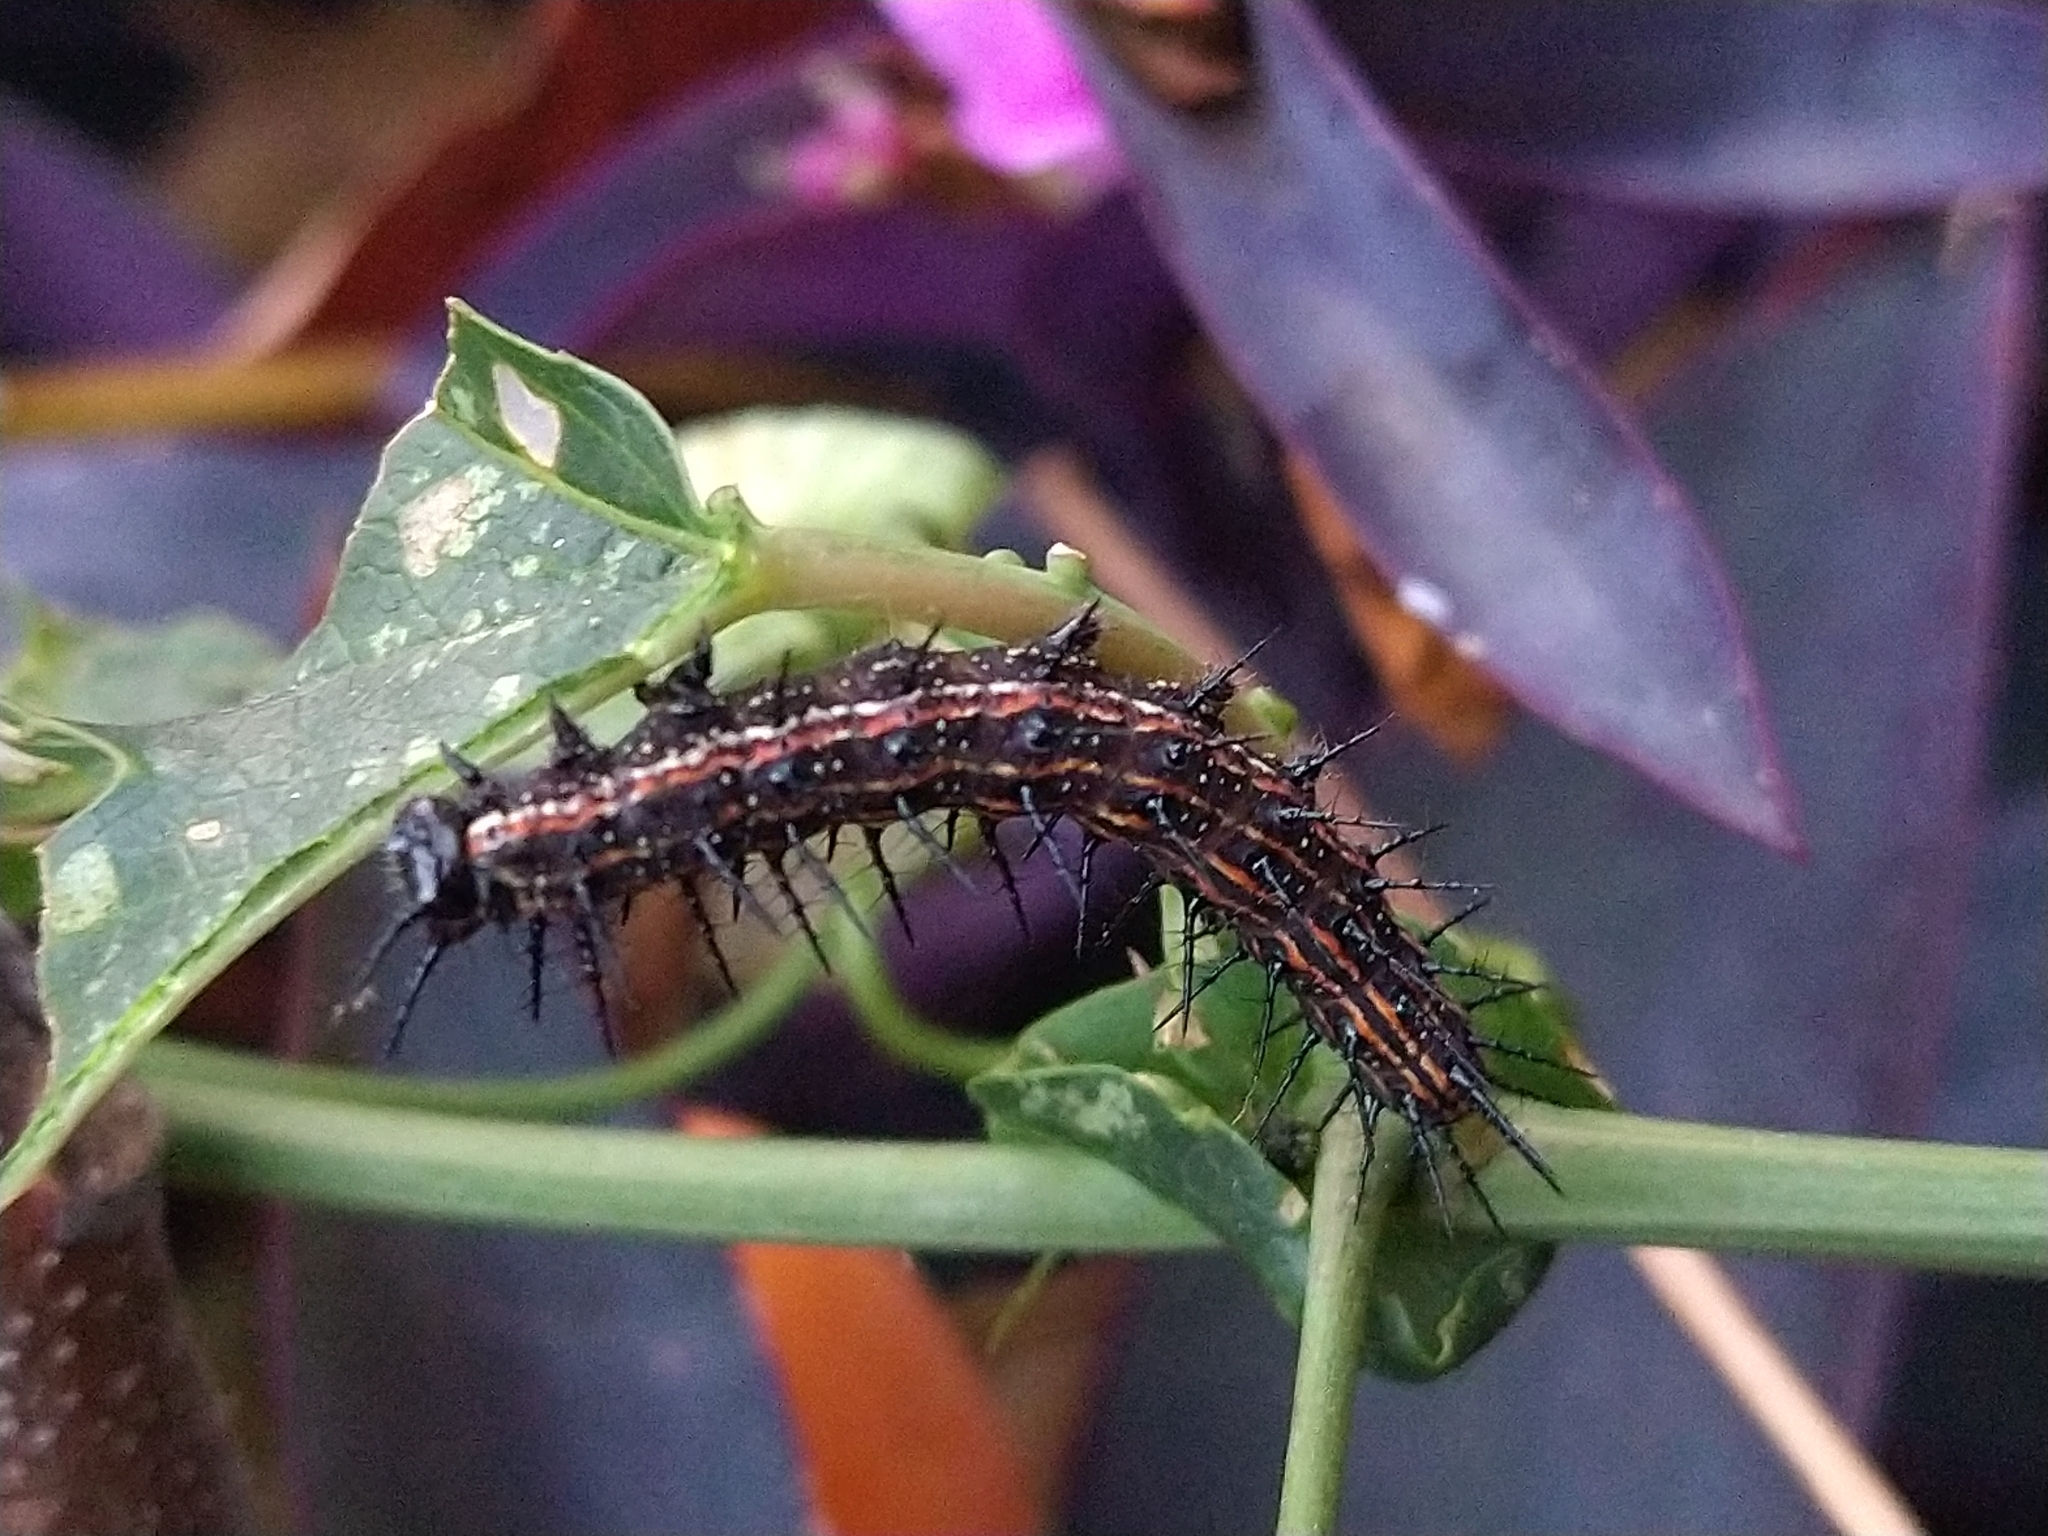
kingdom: Animalia
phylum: Arthropoda
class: Insecta
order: Lepidoptera
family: Nymphalidae
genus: Dione
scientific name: Dione vanillae
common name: Gulf fritillary
